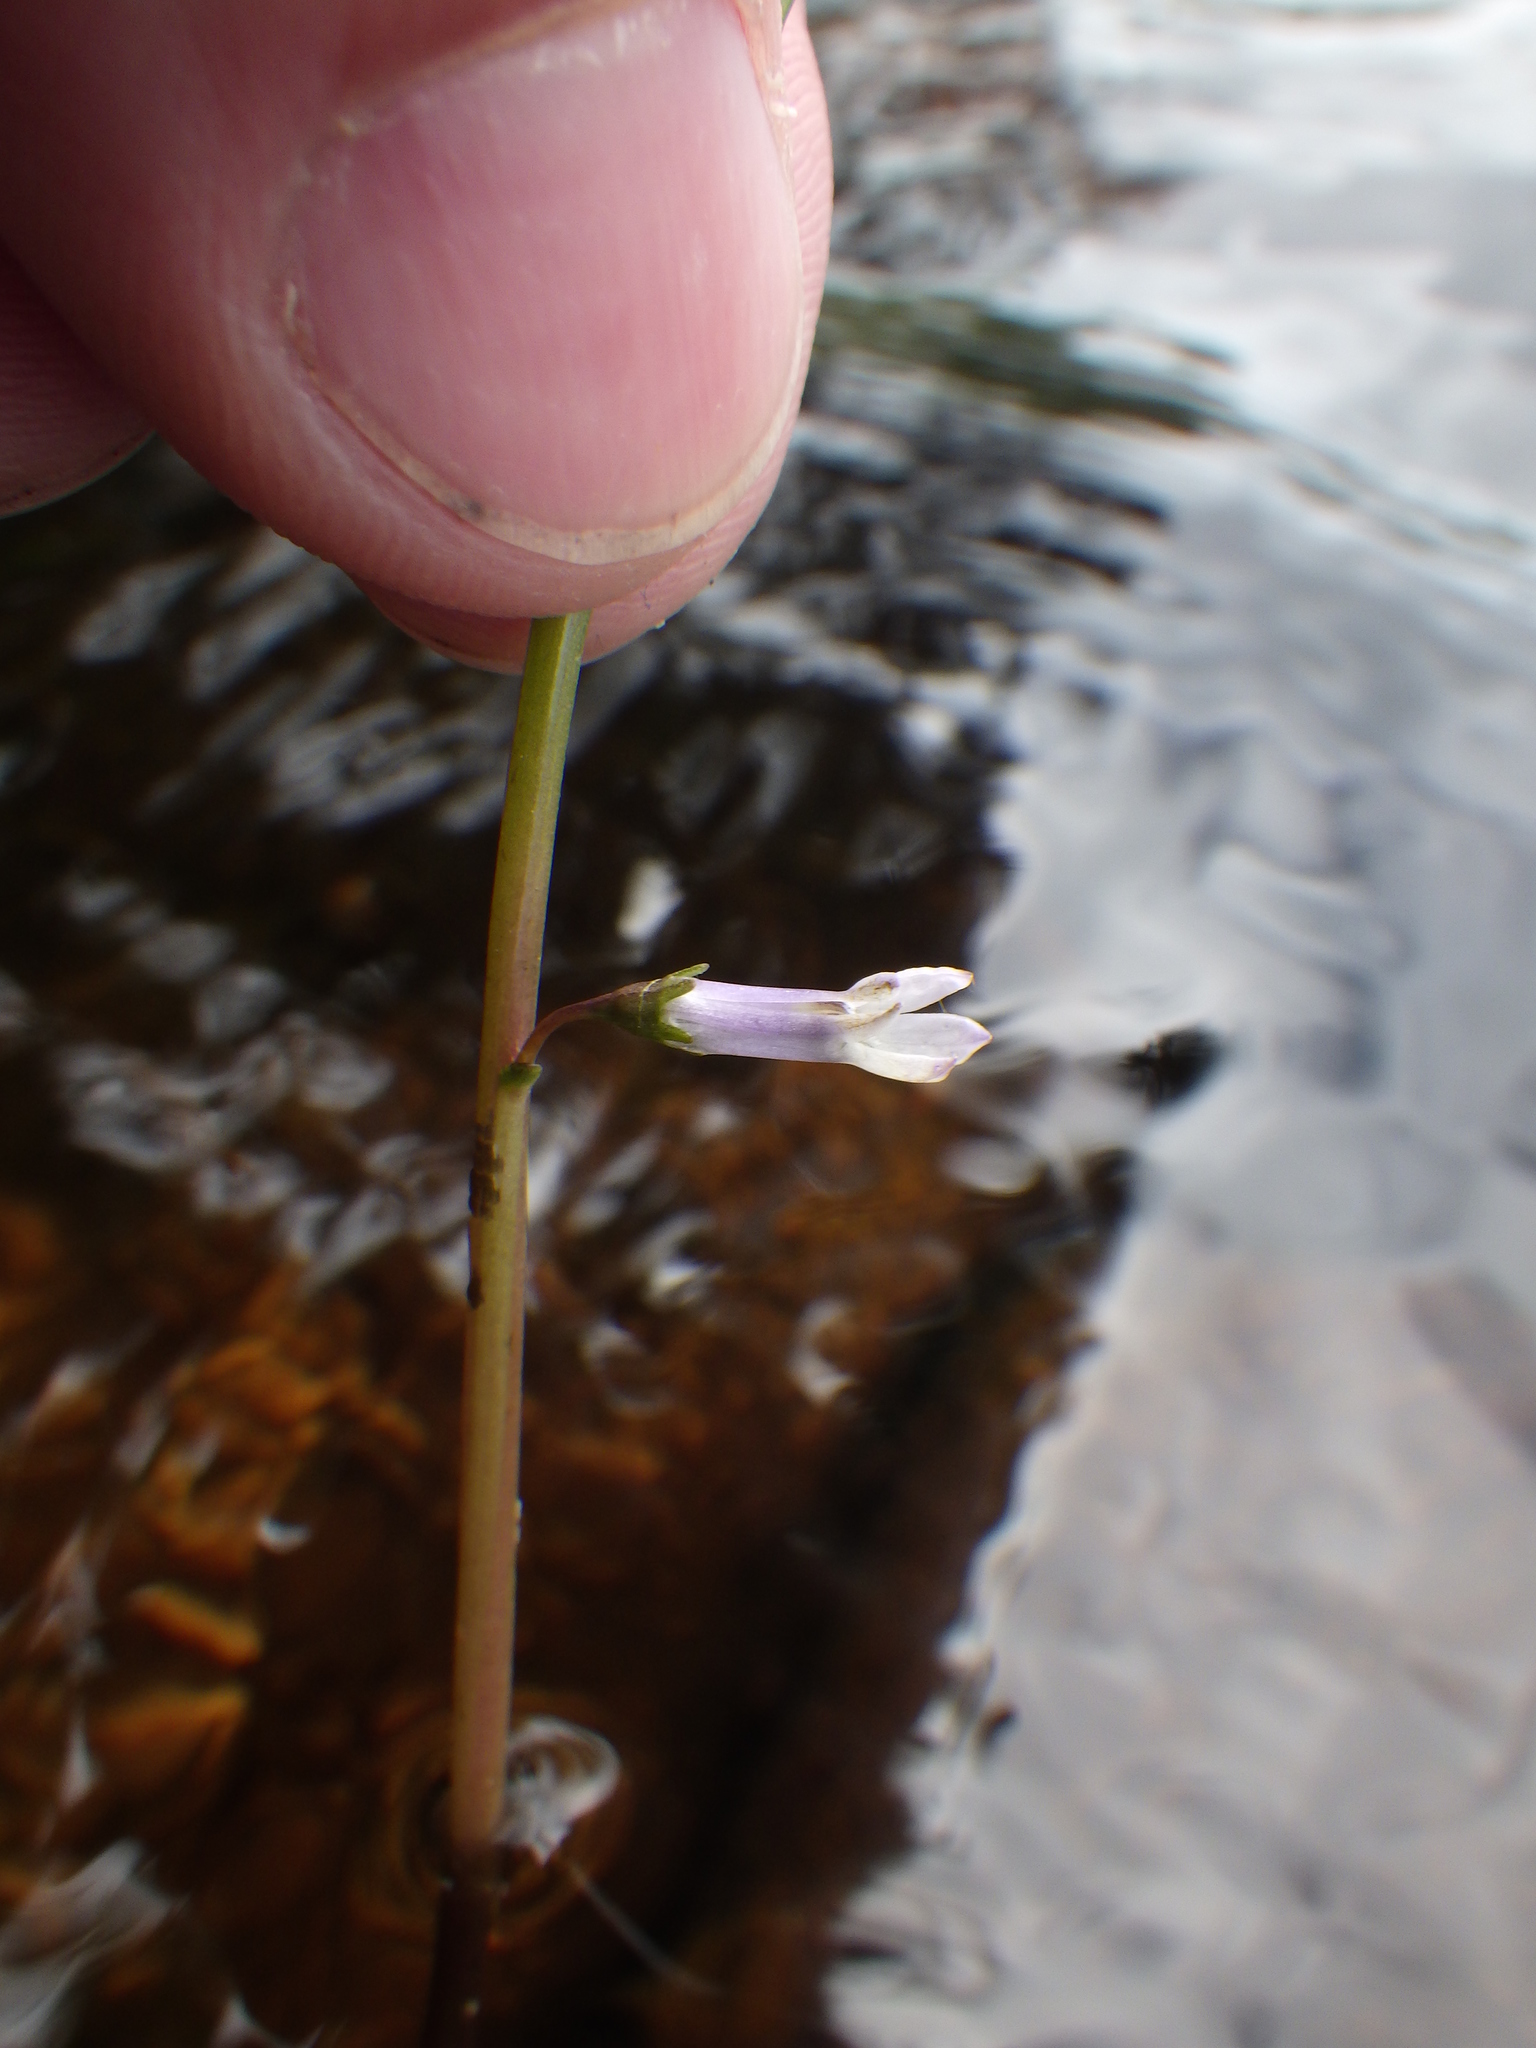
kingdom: Plantae
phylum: Tracheophyta
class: Magnoliopsida
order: Asterales
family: Campanulaceae
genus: Lobelia
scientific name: Lobelia dortmanna
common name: Water lobelia
